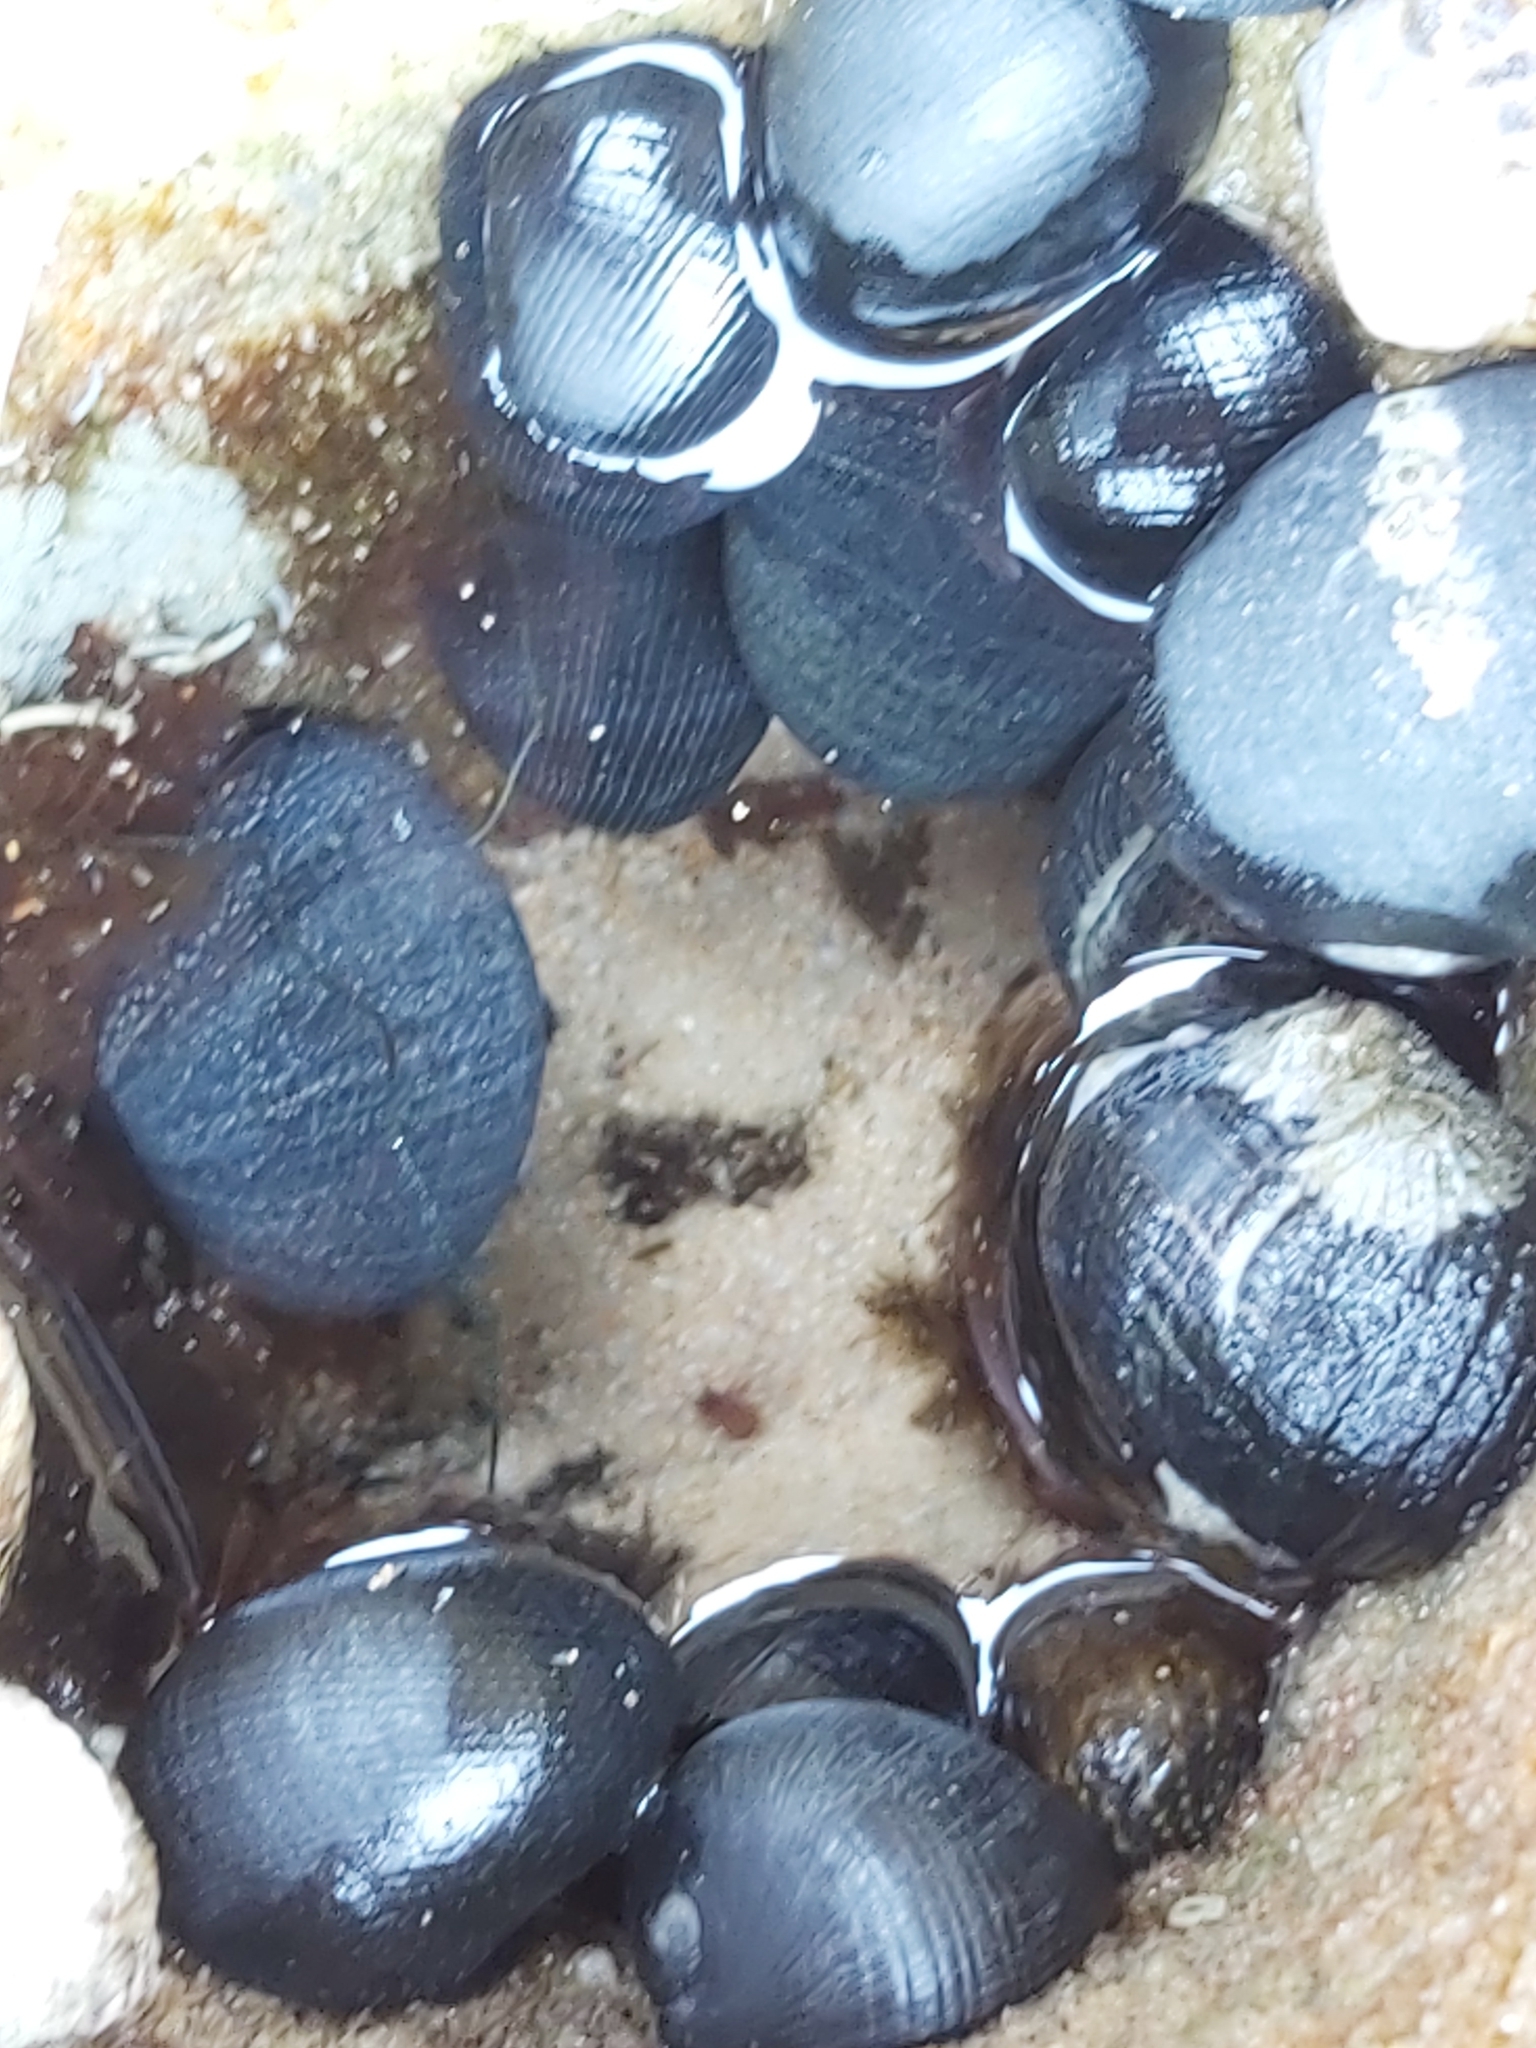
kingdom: Animalia
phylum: Mollusca
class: Gastropoda
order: Cycloneritida
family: Neritidae
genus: Nerita
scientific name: Nerita melanotragus
